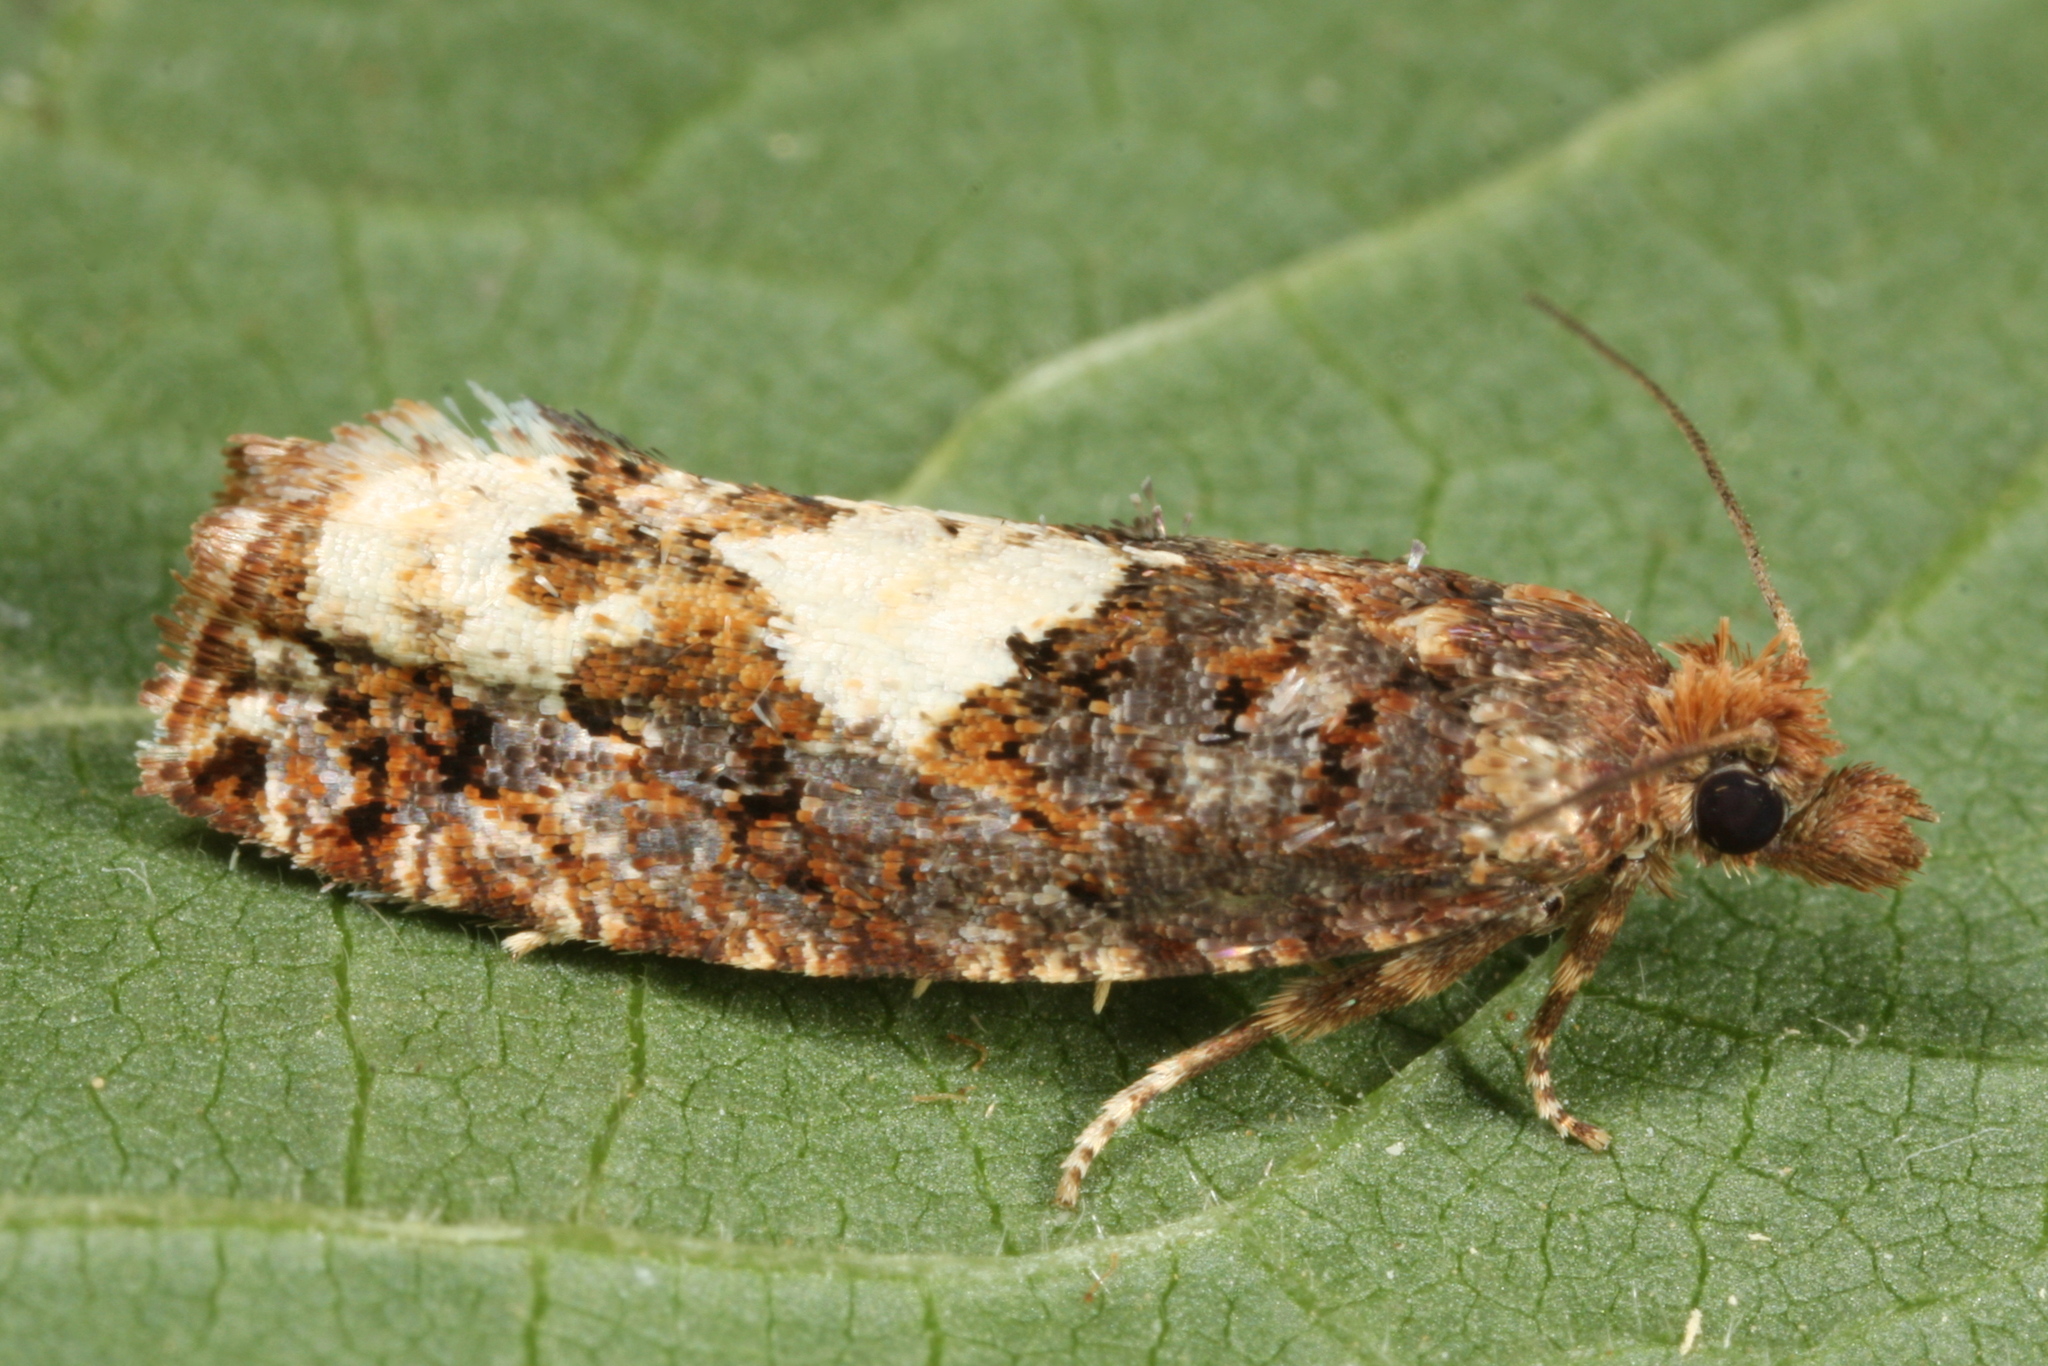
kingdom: Animalia
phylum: Arthropoda
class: Insecta
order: Lepidoptera
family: Tortricidae
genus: Epinotia
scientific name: Epinotia trigonella
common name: White-blotch bell
